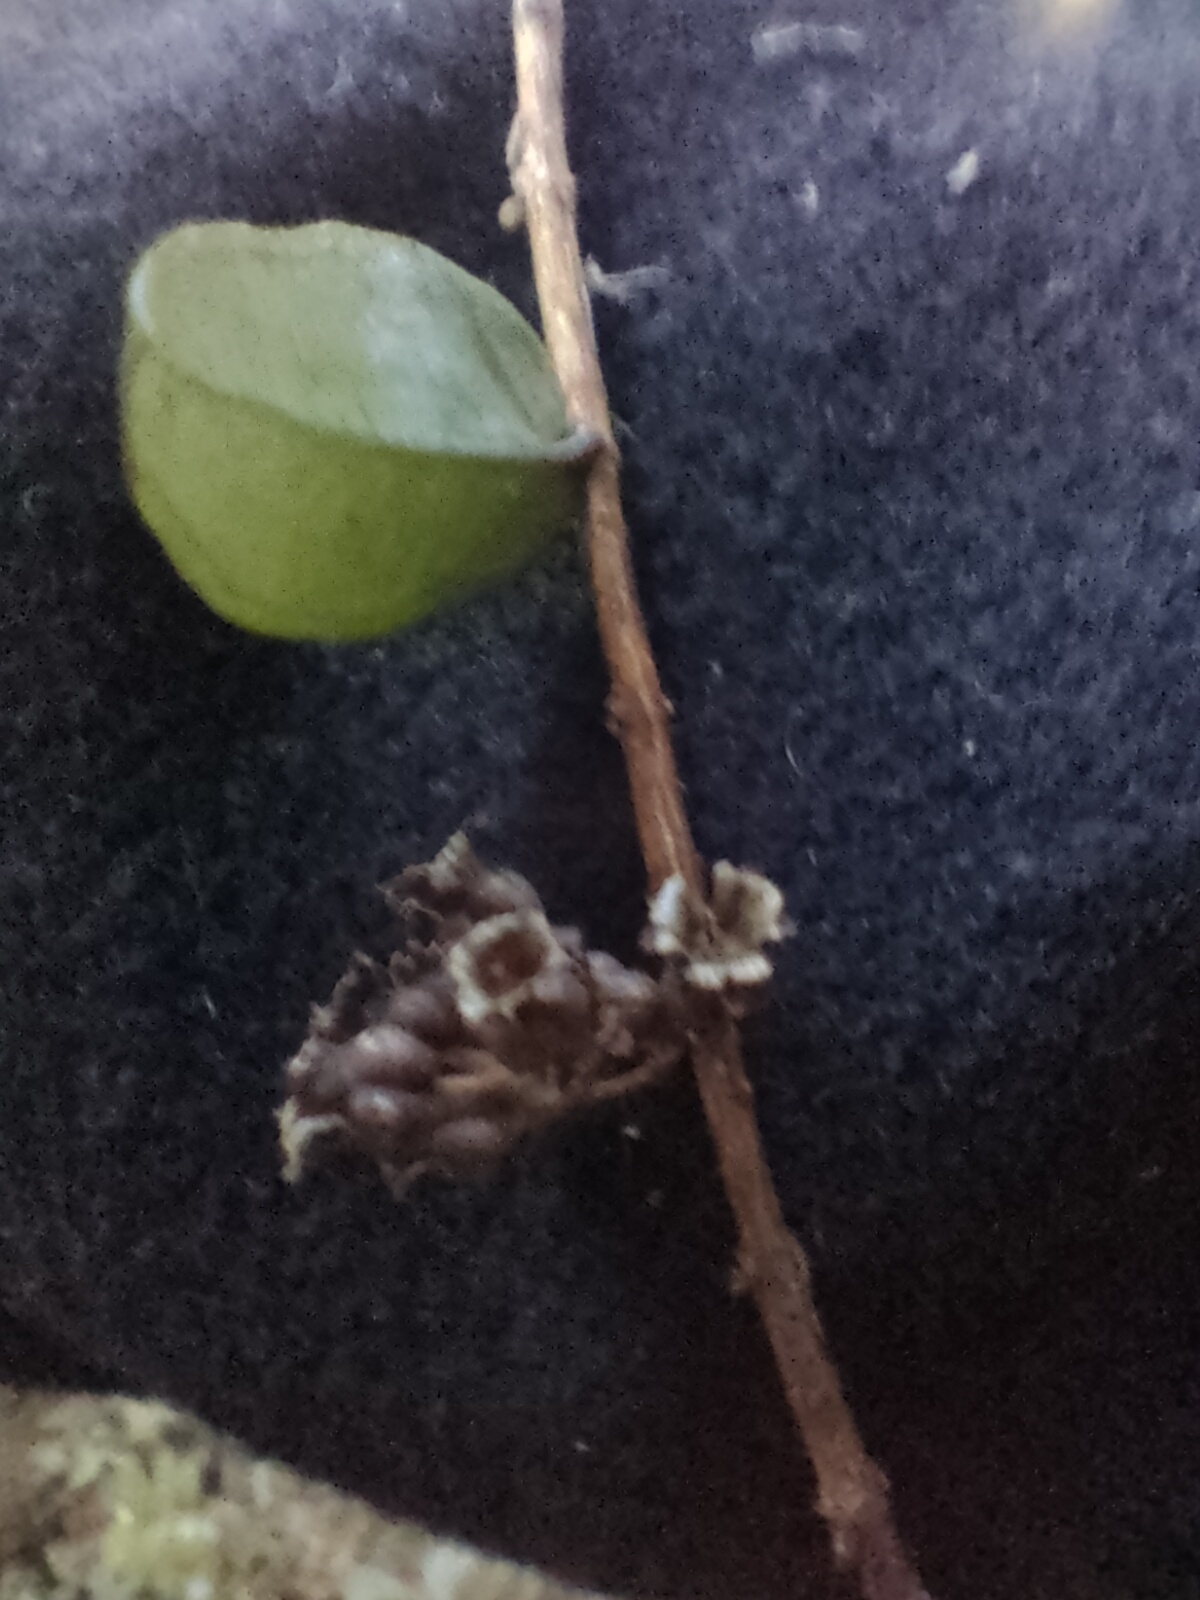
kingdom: Plantae
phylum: Tracheophyta
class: Magnoliopsida
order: Myrtales
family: Myrtaceae
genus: Metrosideros
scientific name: Metrosideros diffusa
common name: Small ratavine
